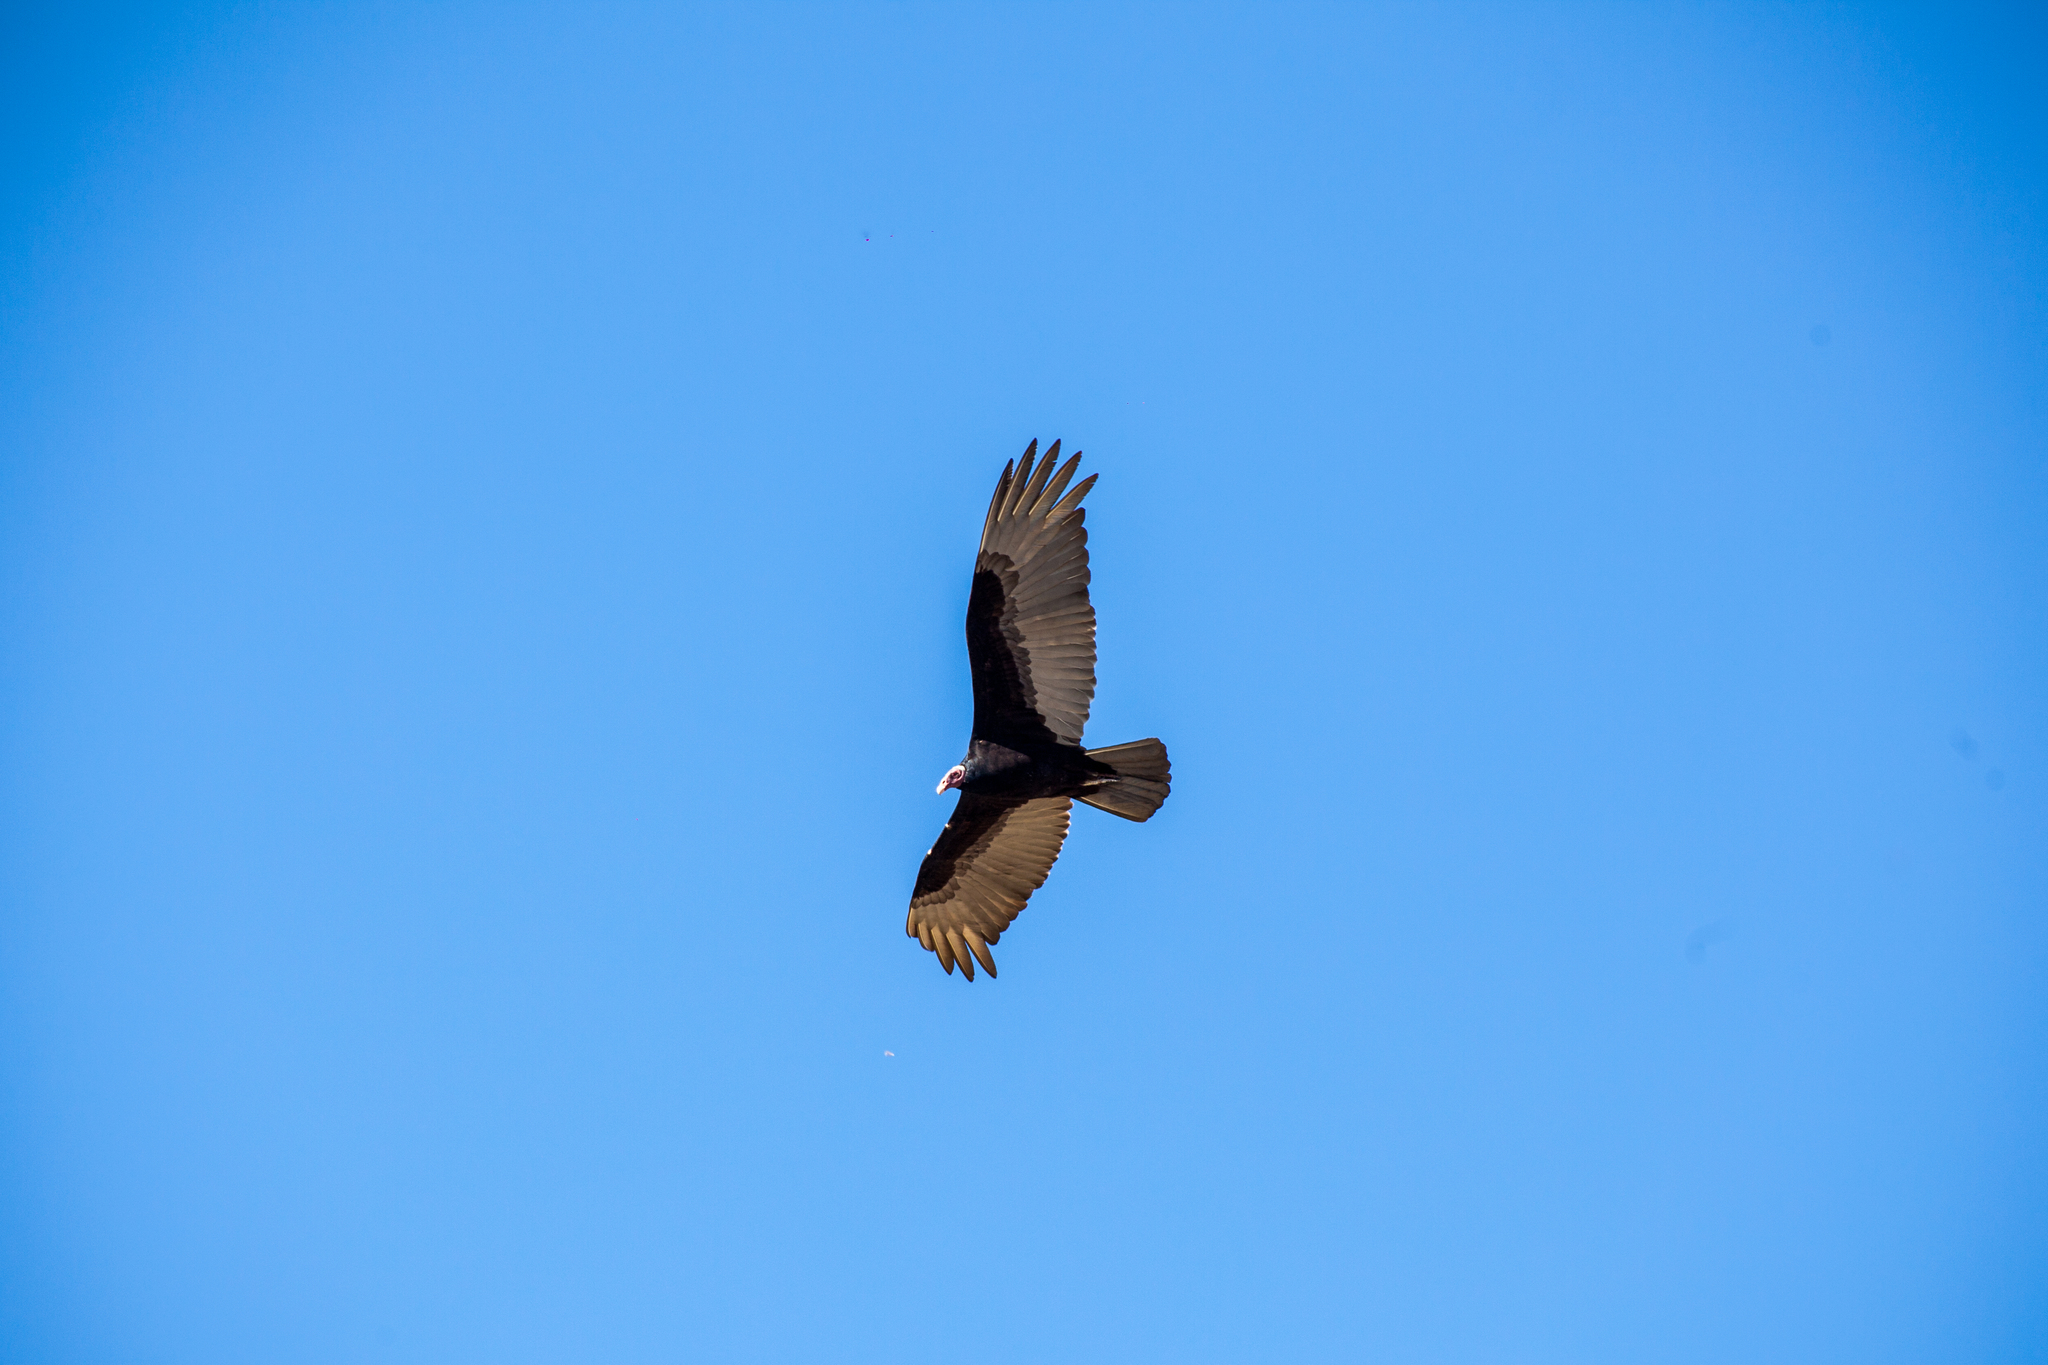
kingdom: Animalia
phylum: Chordata
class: Aves
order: Accipitriformes
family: Cathartidae
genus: Cathartes
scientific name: Cathartes aura
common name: Turkey vulture
